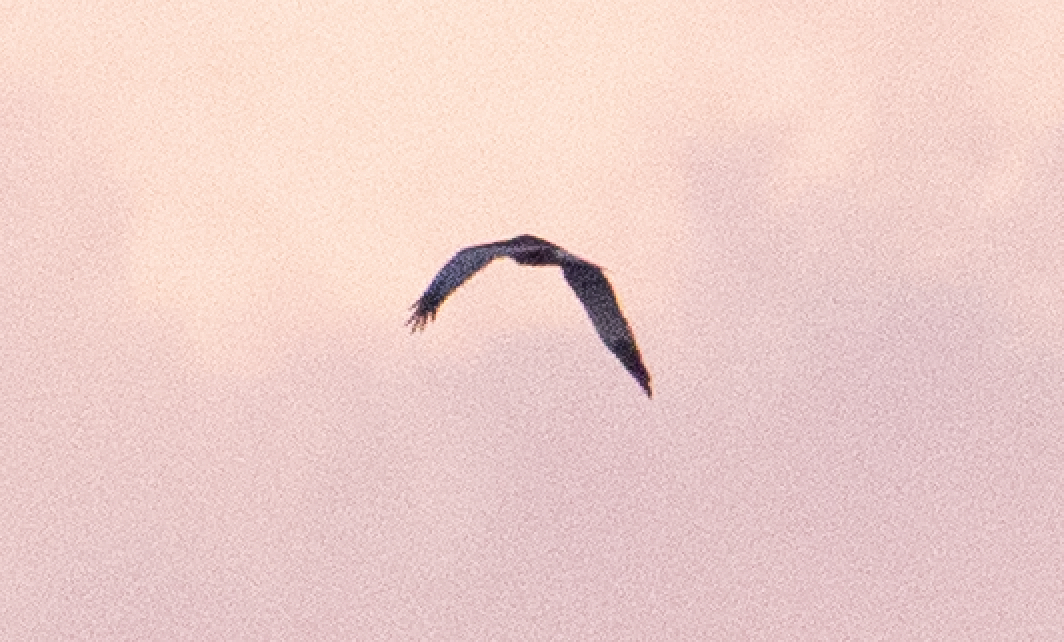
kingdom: Animalia
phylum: Chordata
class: Aves
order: Accipitriformes
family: Accipitridae
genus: Circus
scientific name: Circus cyaneus
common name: Hen harrier
